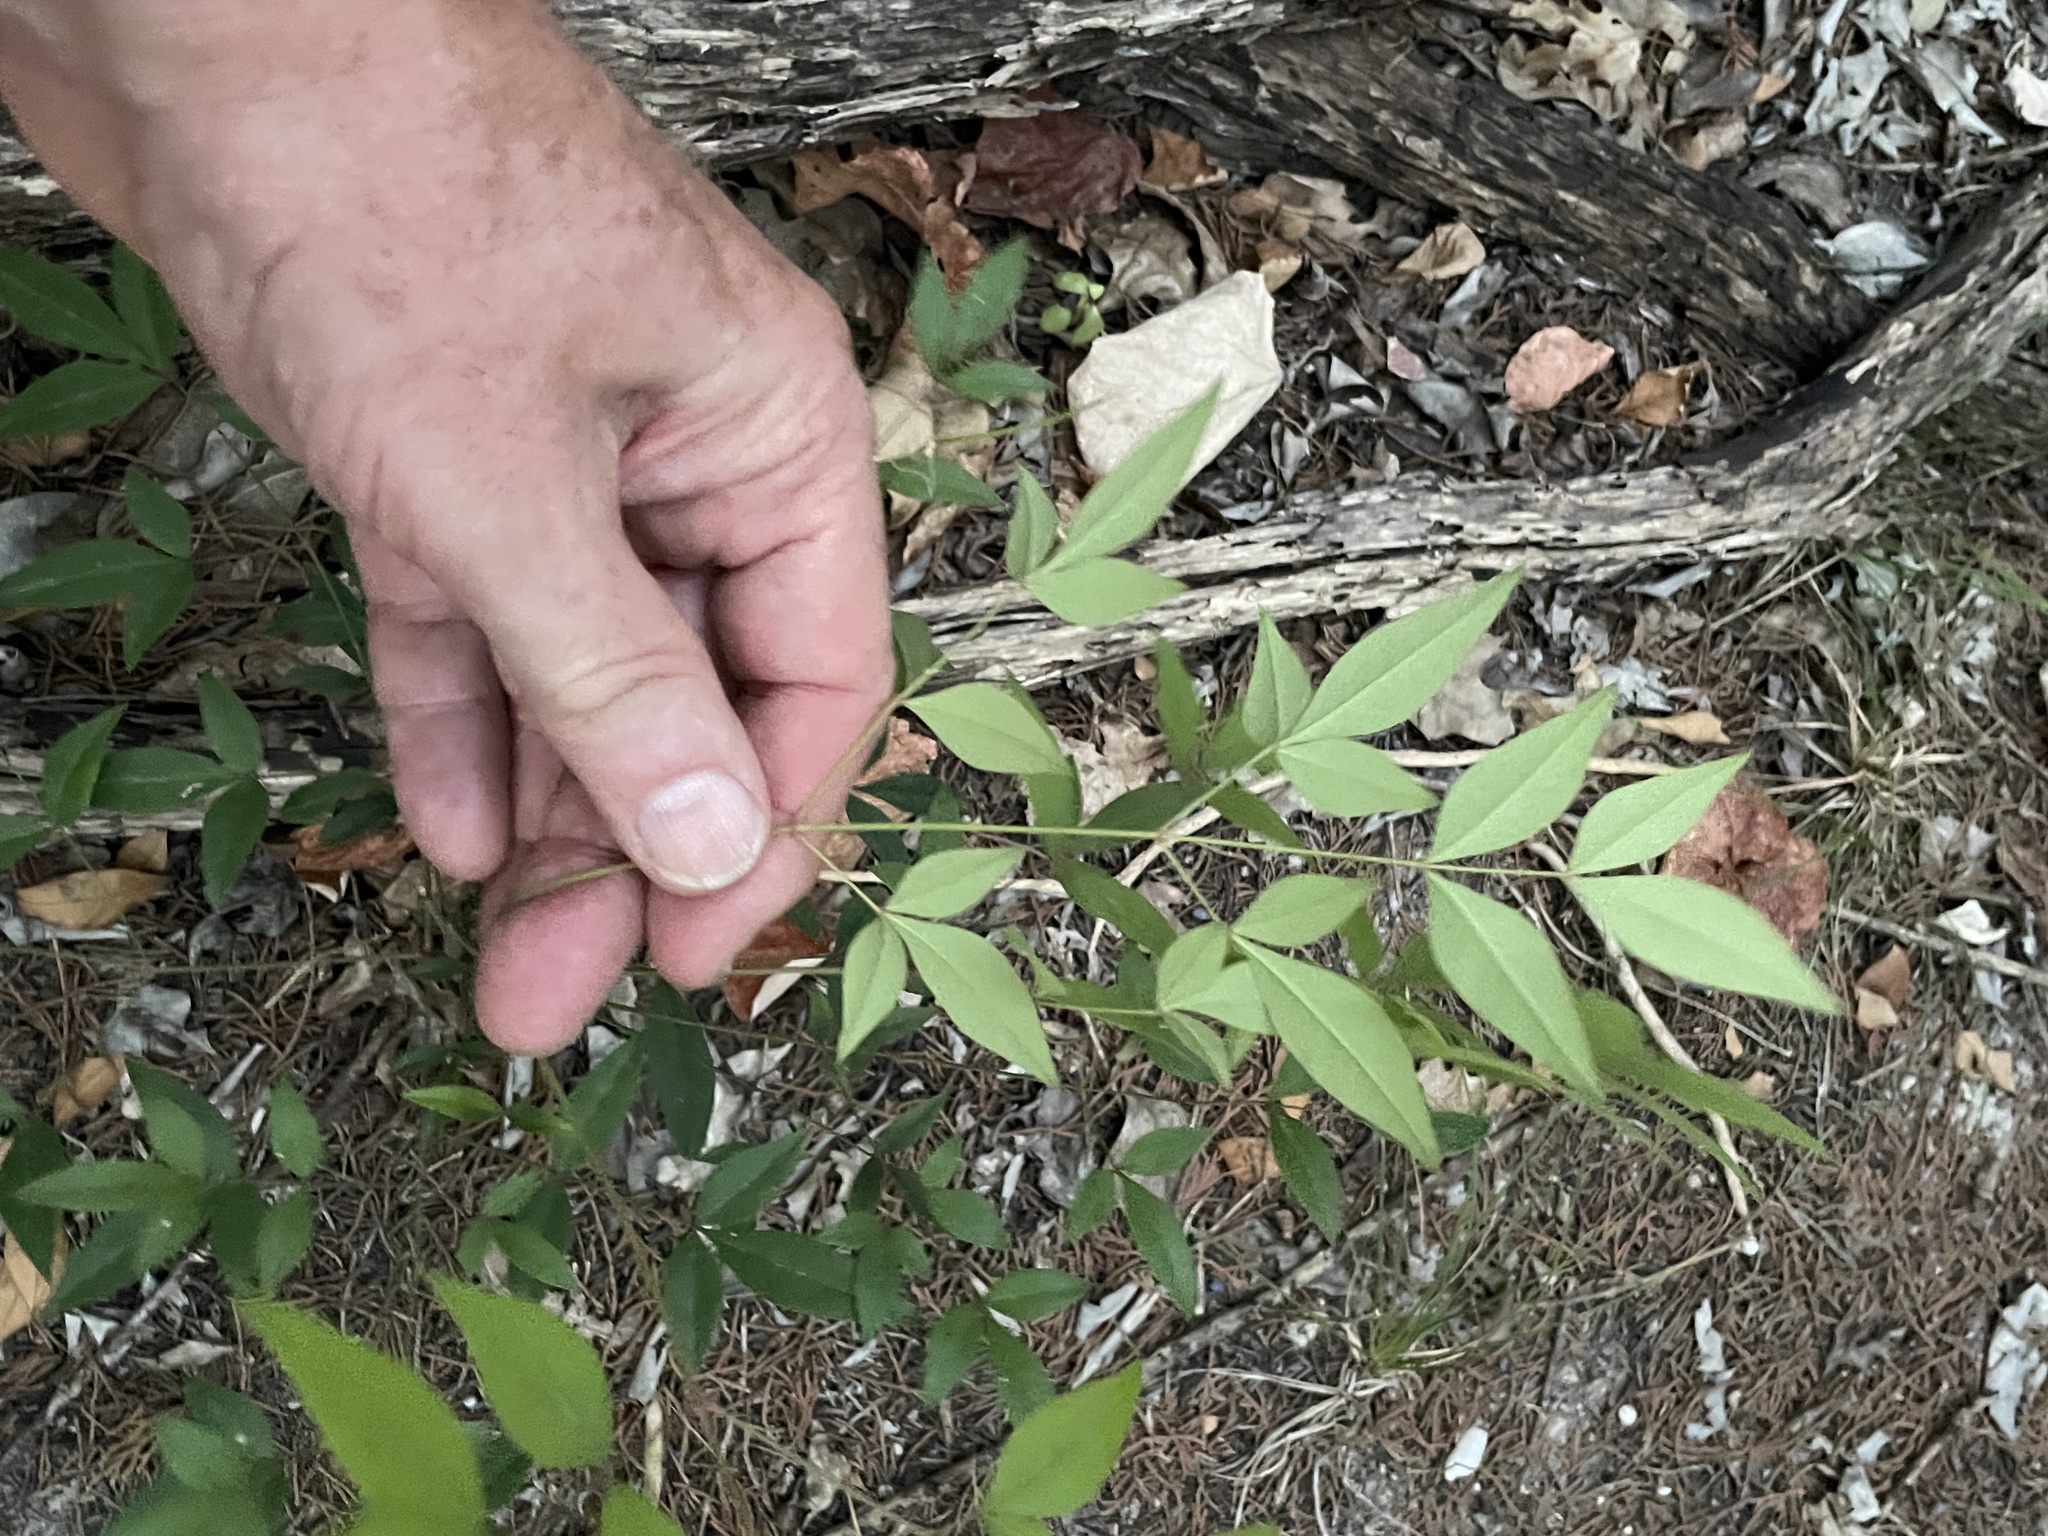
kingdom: Plantae
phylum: Tracheophyta
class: Magnoliopsida
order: Ranunculales
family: Berberidaceae
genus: Nandina
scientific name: Nandina domestica
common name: Sacred bamboo
